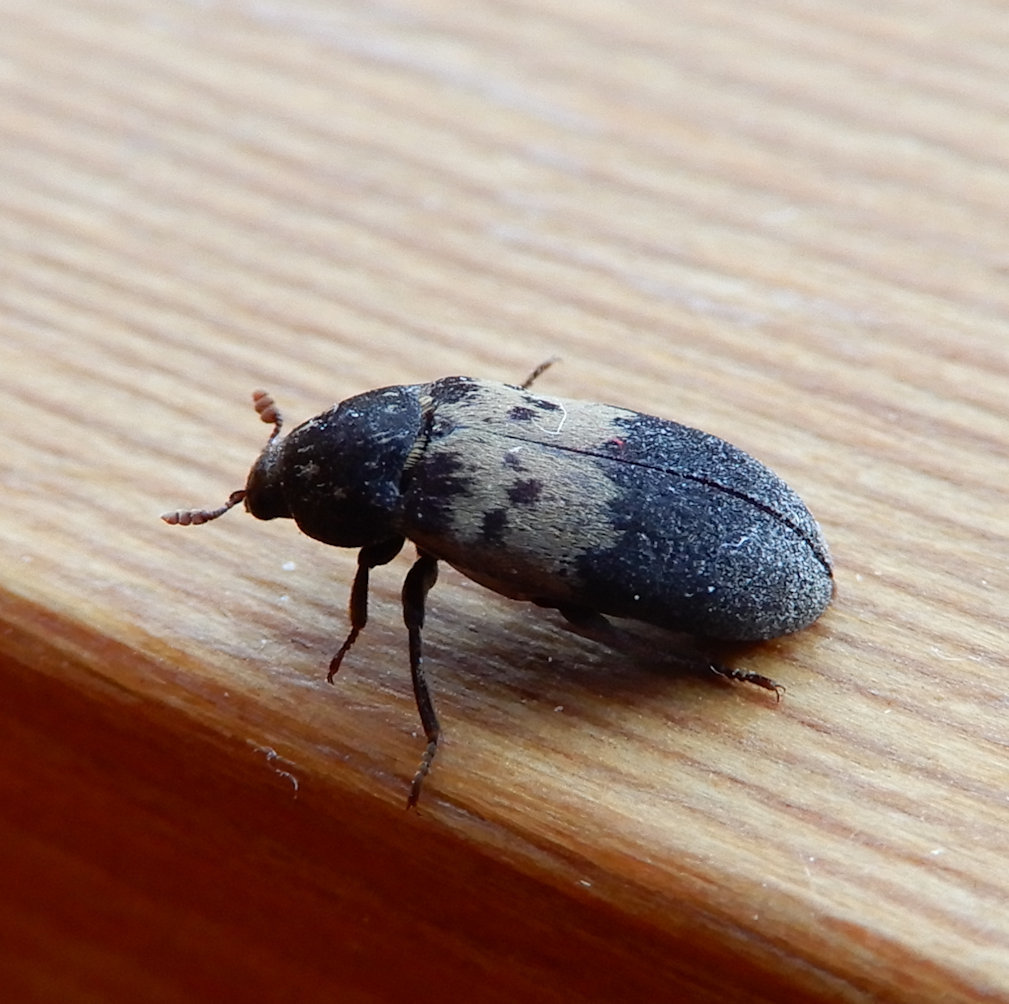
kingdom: Animalia
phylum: Arthropoda
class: Insecta
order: Coleoptera
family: Dermestidae
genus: Dermestes
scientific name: Dermestes lardarius
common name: Larder beetle
